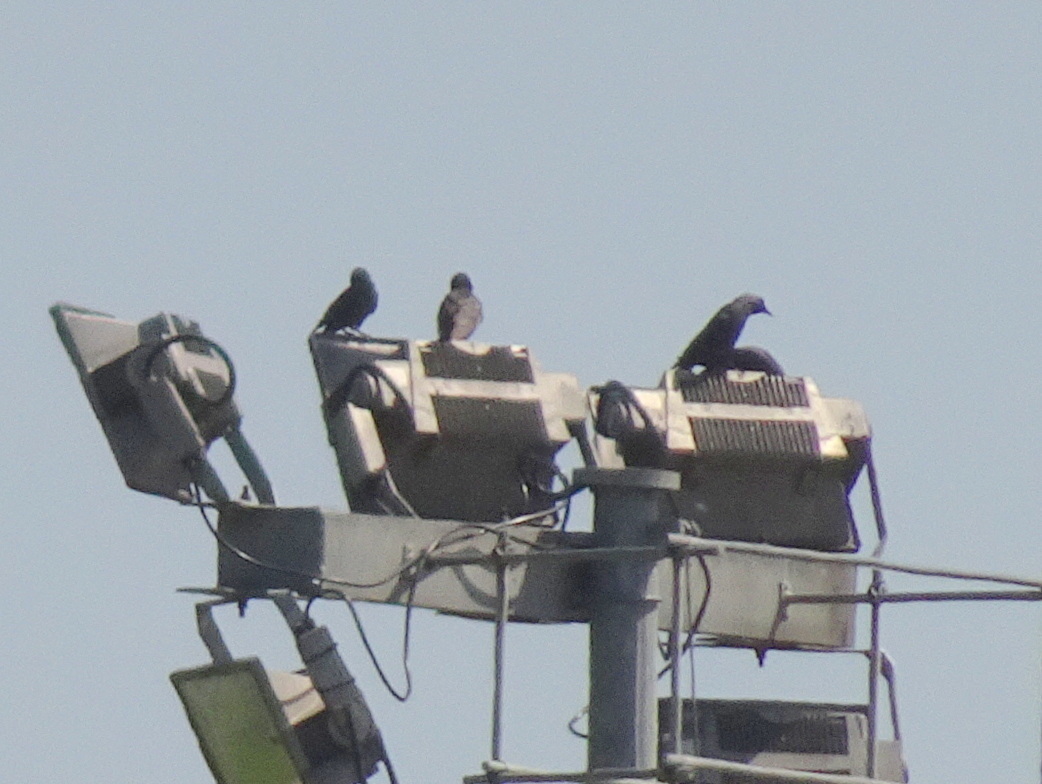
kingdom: Animalia
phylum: Chordata
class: Aves
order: Passeriformes
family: Corvidae
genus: Coloeus
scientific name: Coloeus monedula
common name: Western jackdaw
